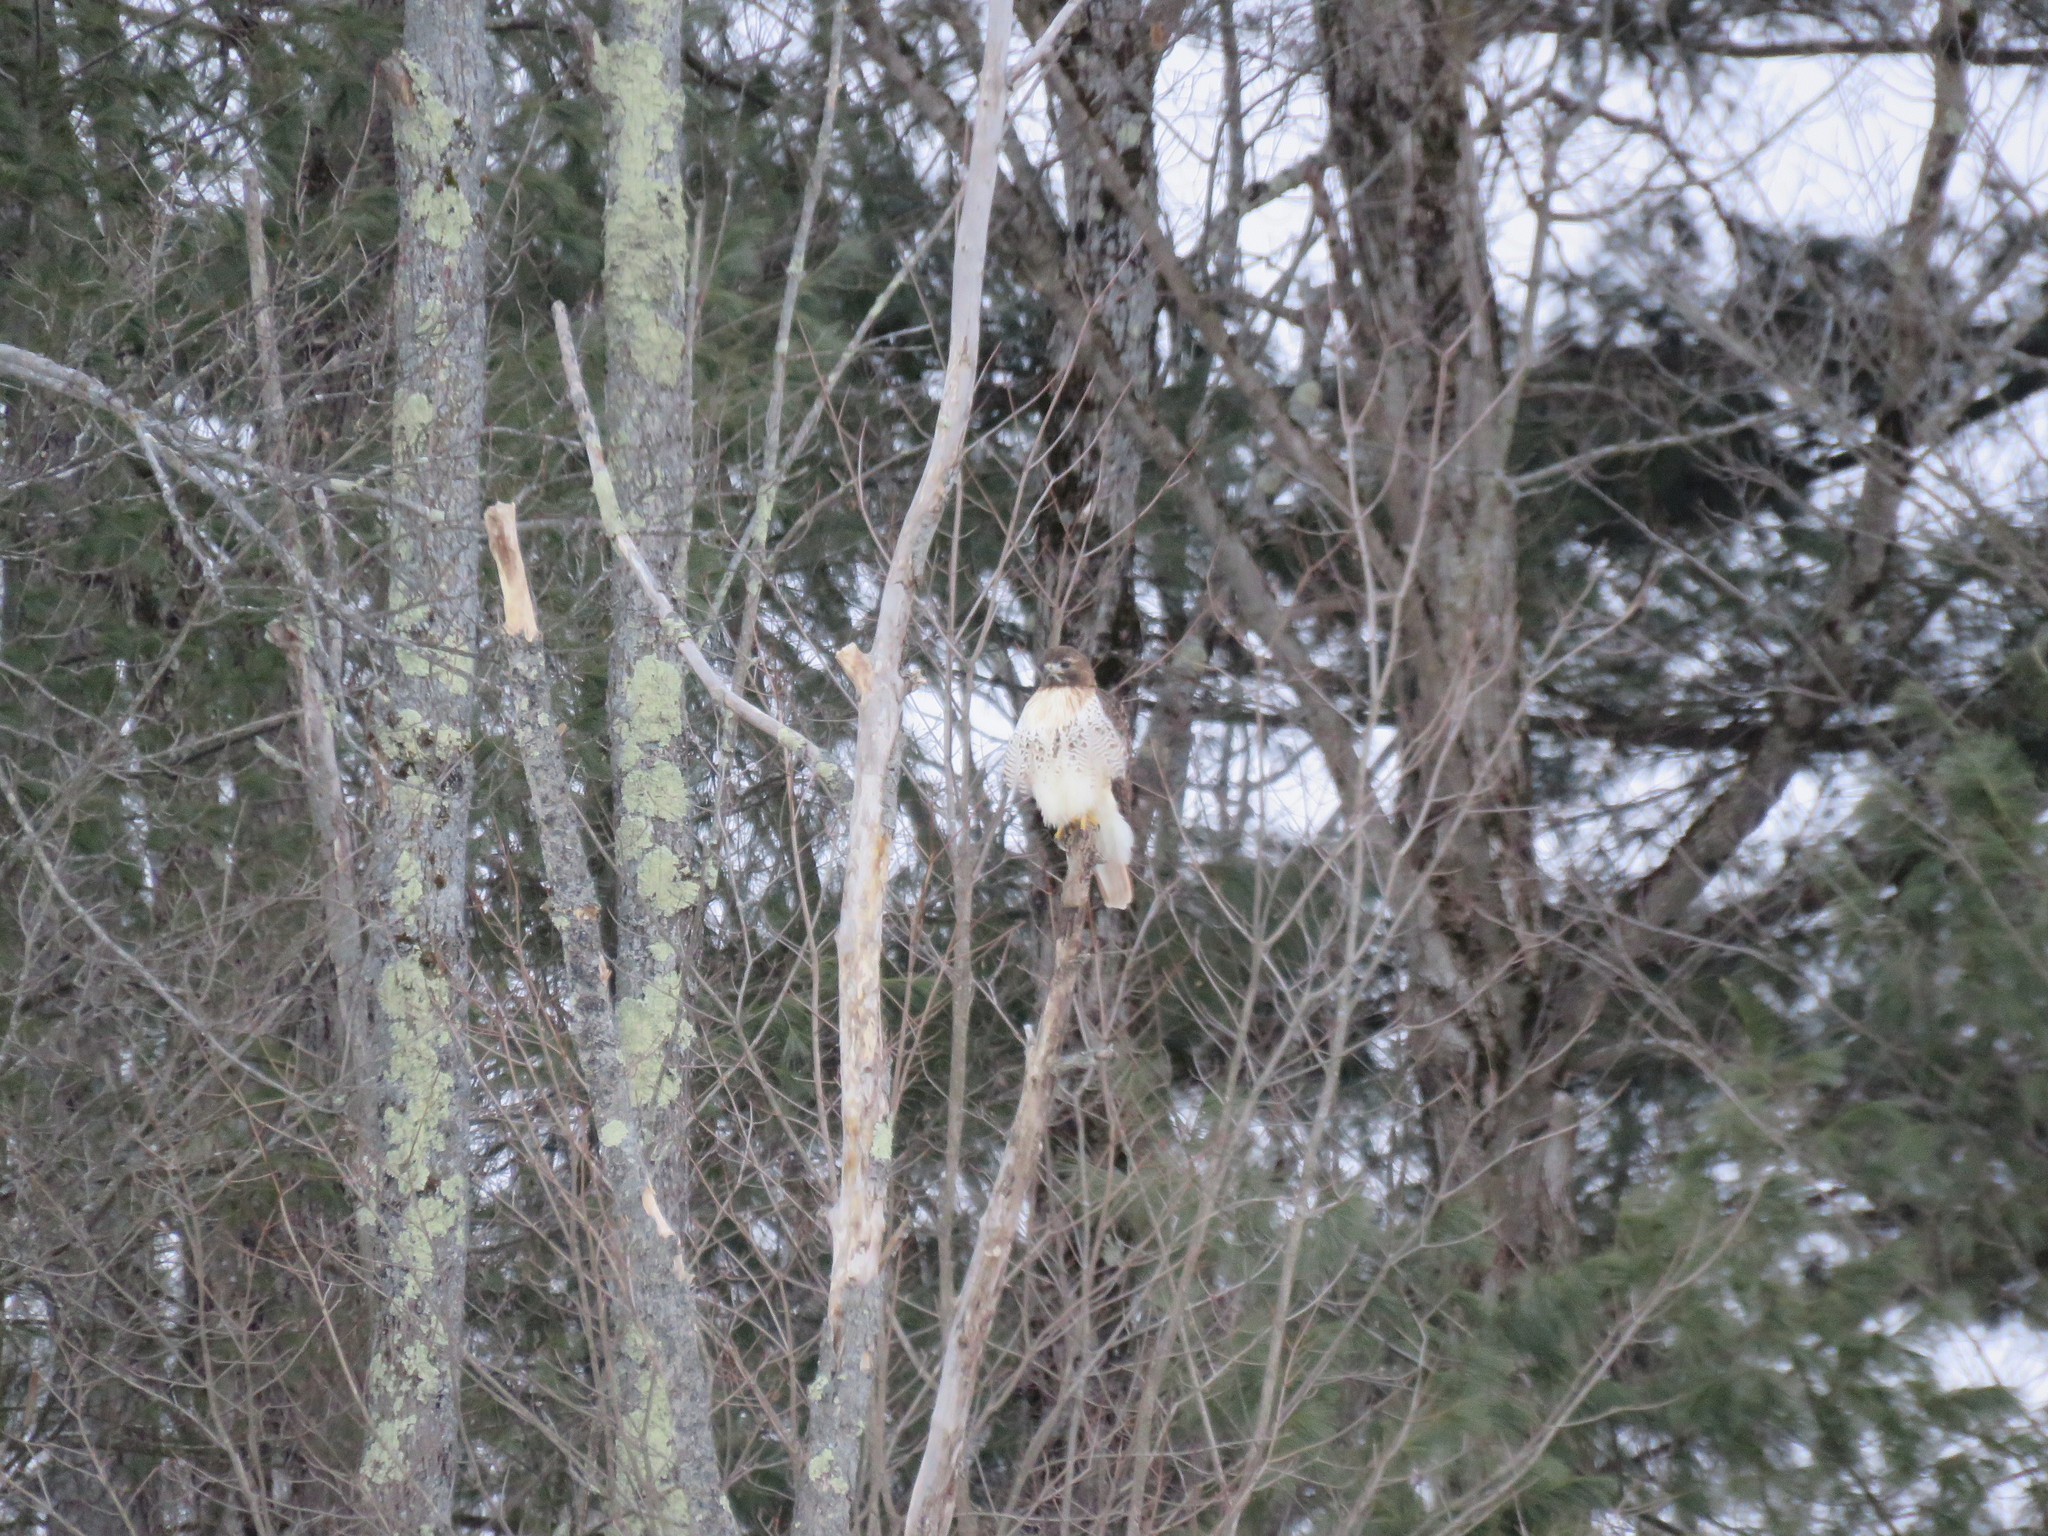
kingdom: Animalia
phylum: Chordata
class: Aves
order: Accipitriformes
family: Accipitridae
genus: Buteo
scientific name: Buteo jamaicensis
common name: Red-tailed hawk
